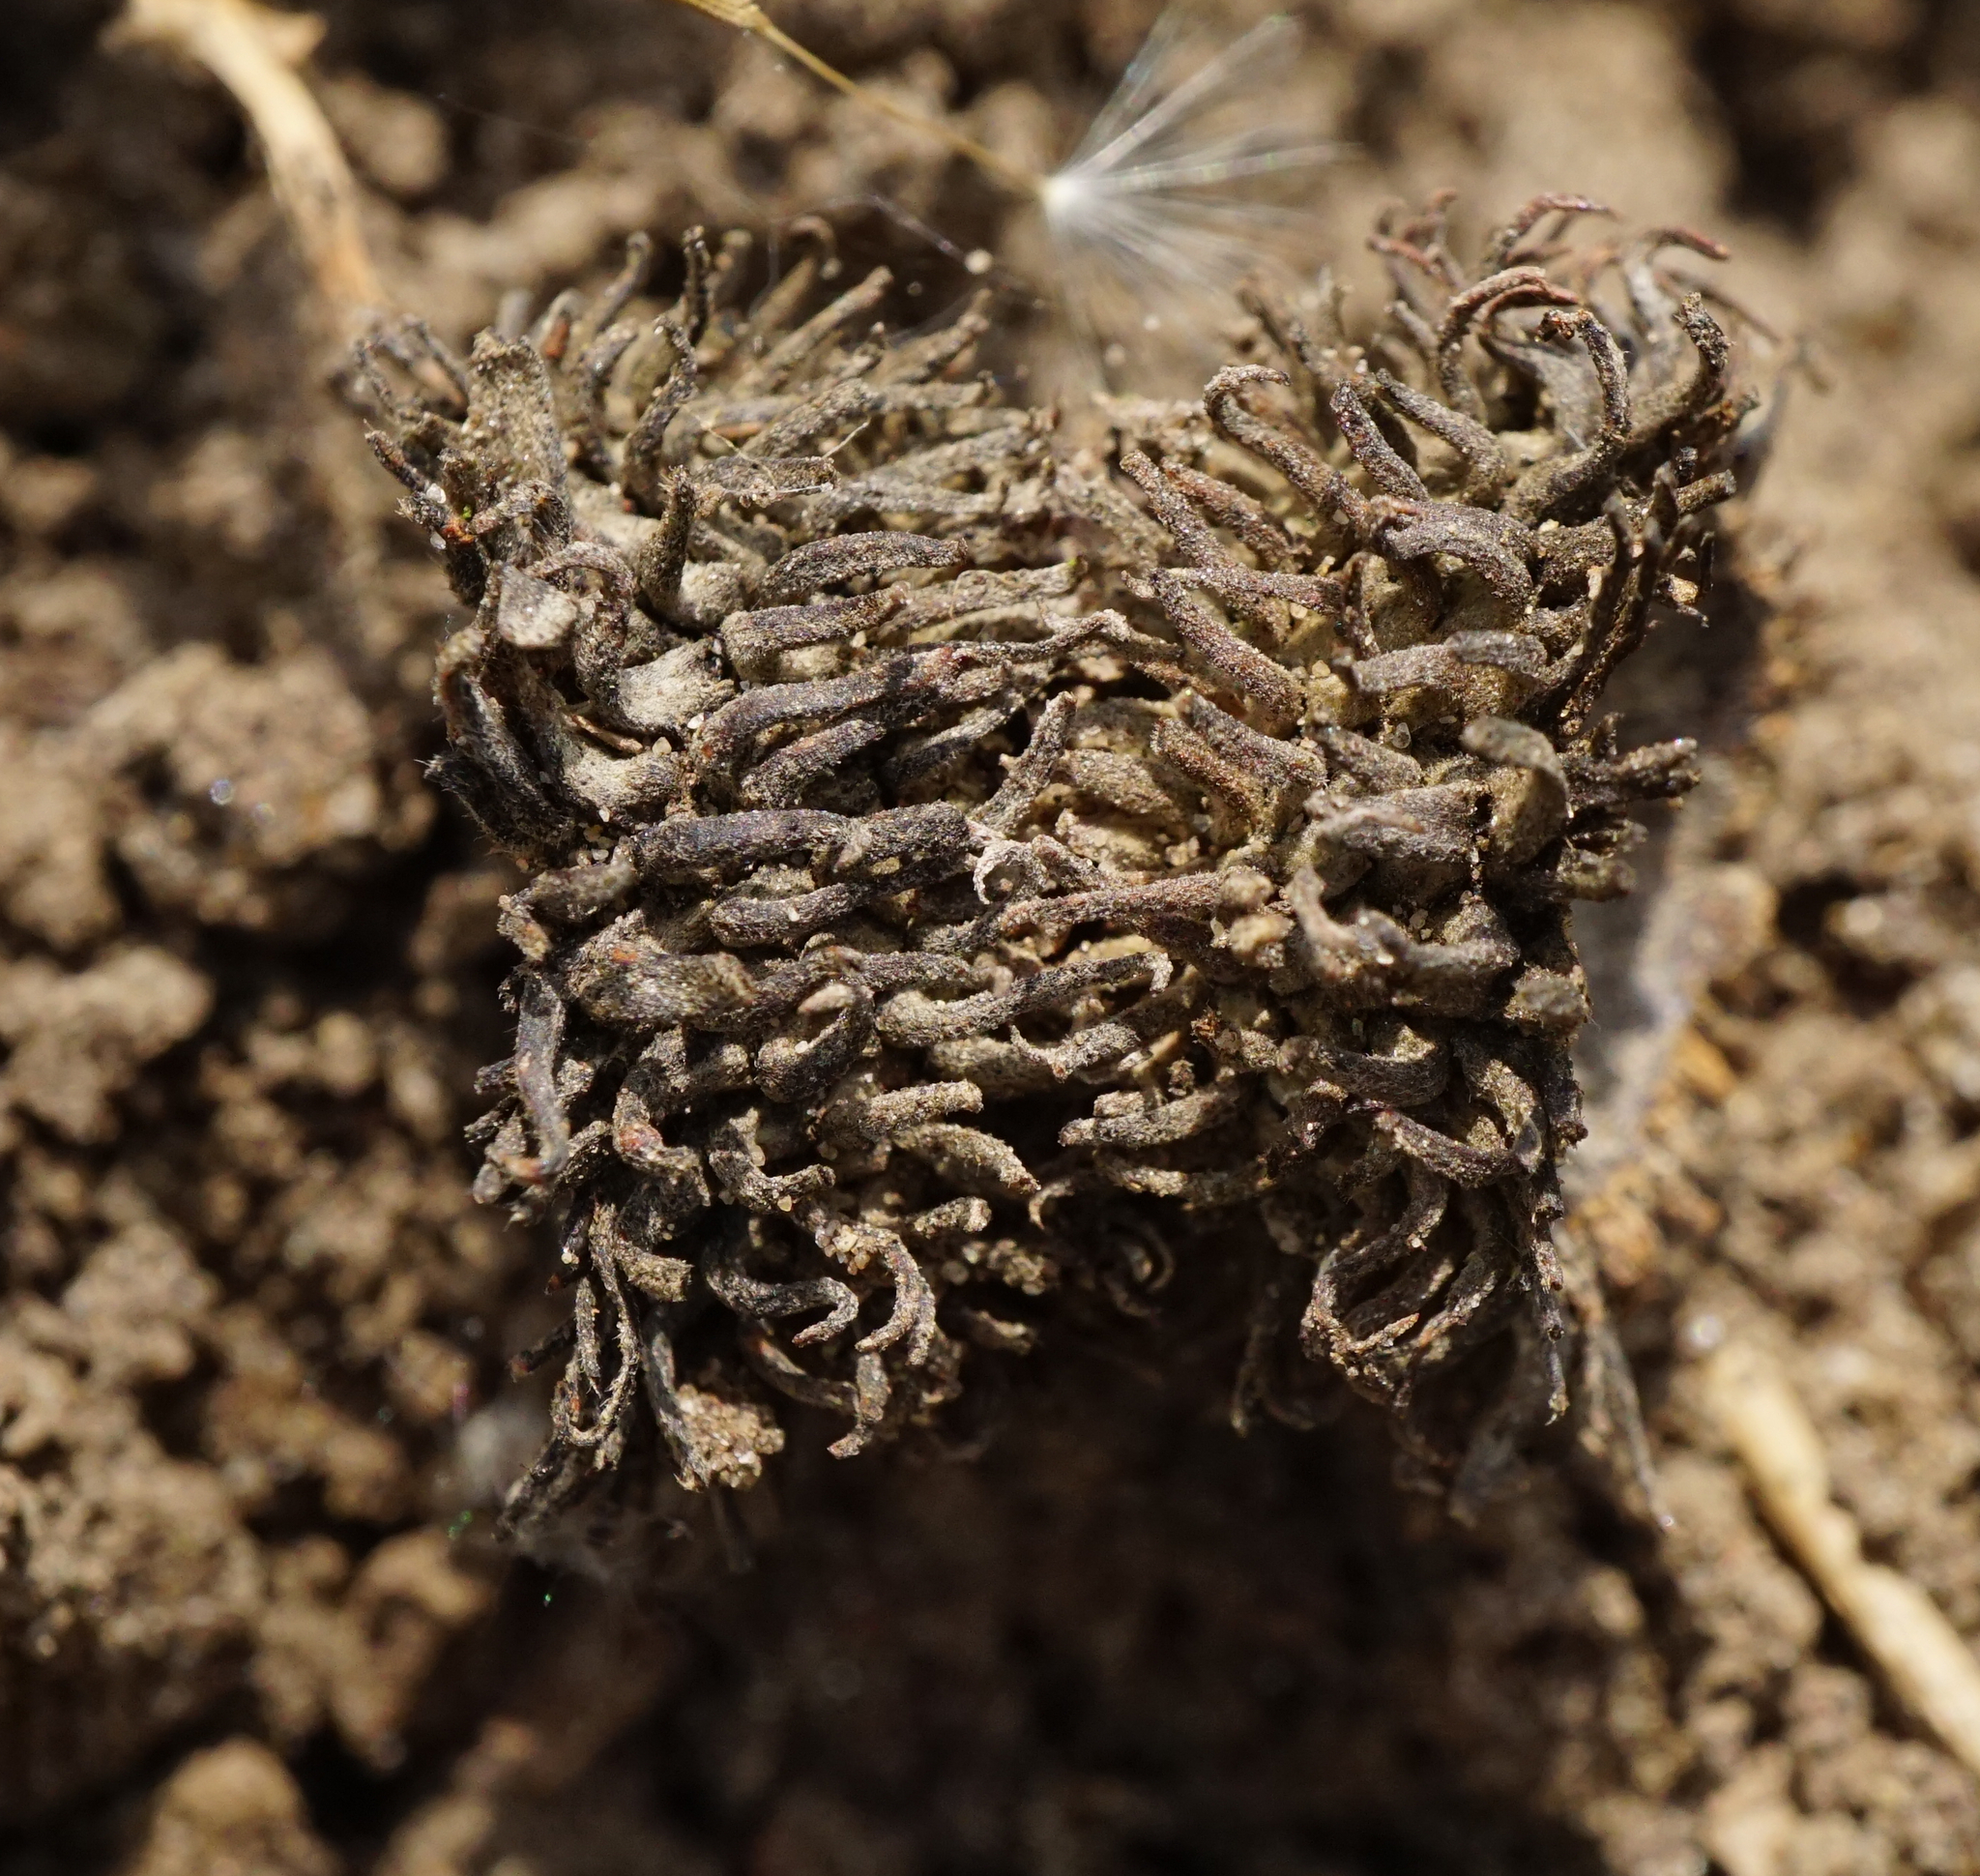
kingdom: Plantae
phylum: Tracheophyta
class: Magnoliopsida
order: Fagales
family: Fagaceae
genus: Quercus
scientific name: Quercus cerris
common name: Turkey oak
